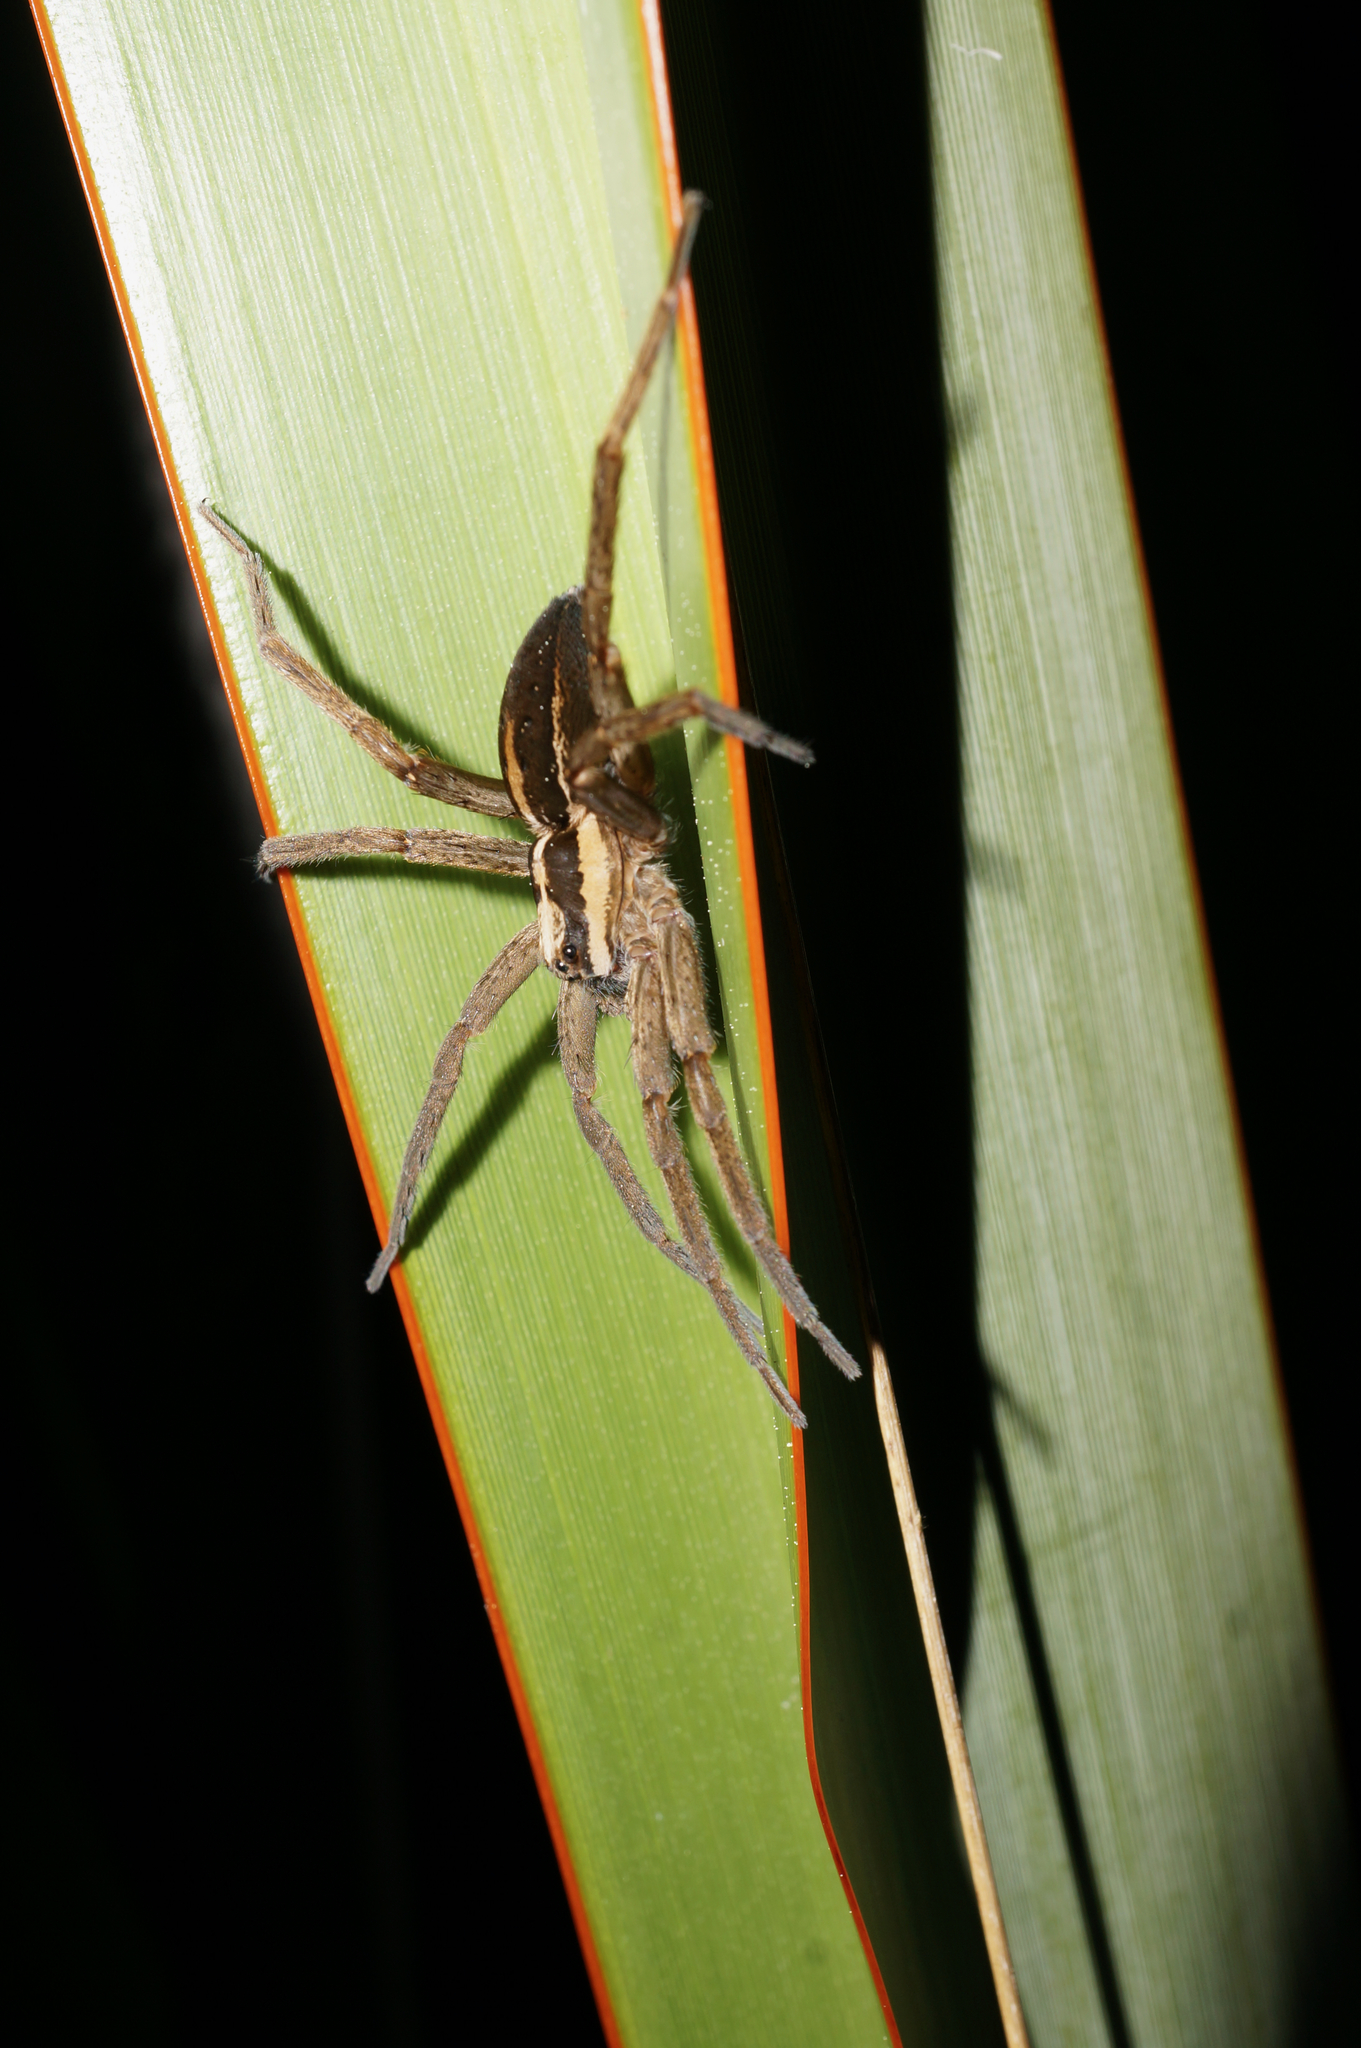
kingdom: Animalia
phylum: Arthropoda
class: Arachnida
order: Araneae
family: Pisauridae
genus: Dolomedes
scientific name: Dolomedes minor
